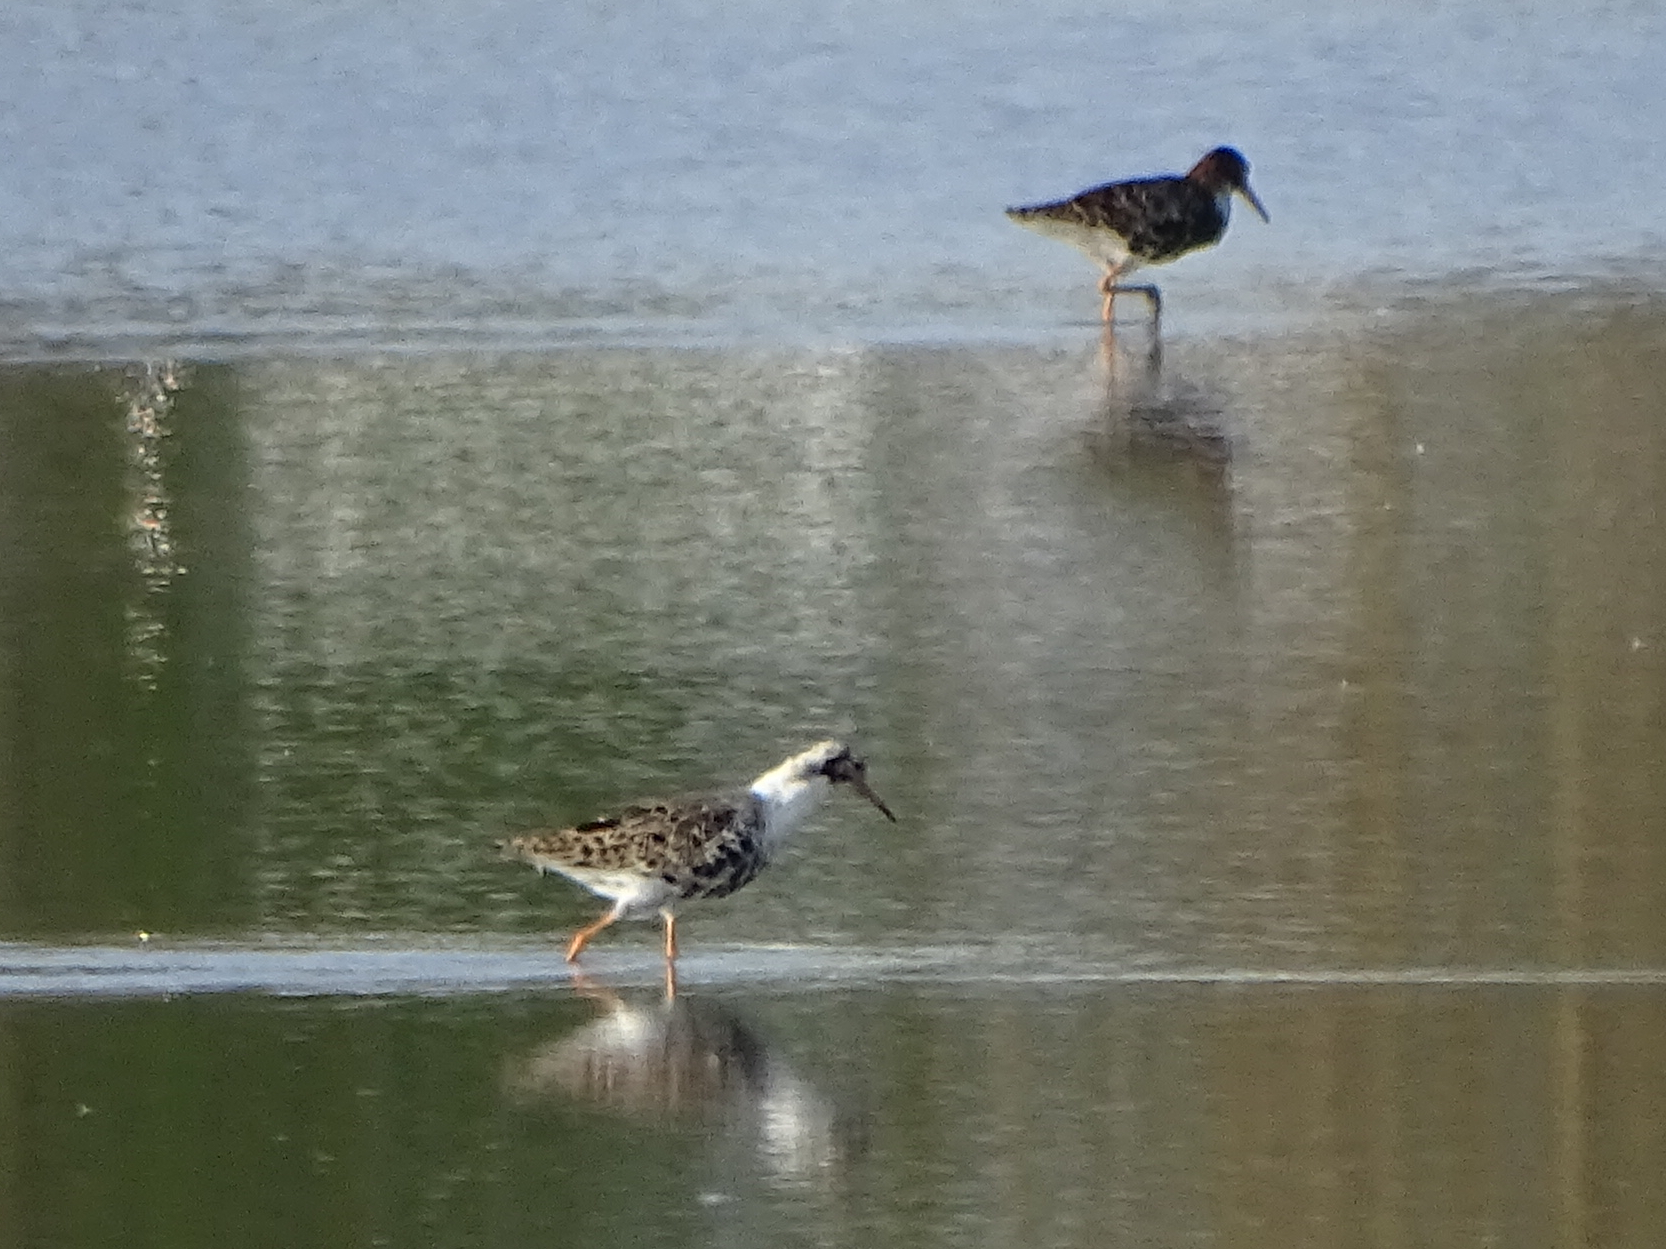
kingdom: Animalia
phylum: Chordata
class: Aves
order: Charadriiformes
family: Scolopacidae
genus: Calidris
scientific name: Calidris pugnax
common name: Ruff
